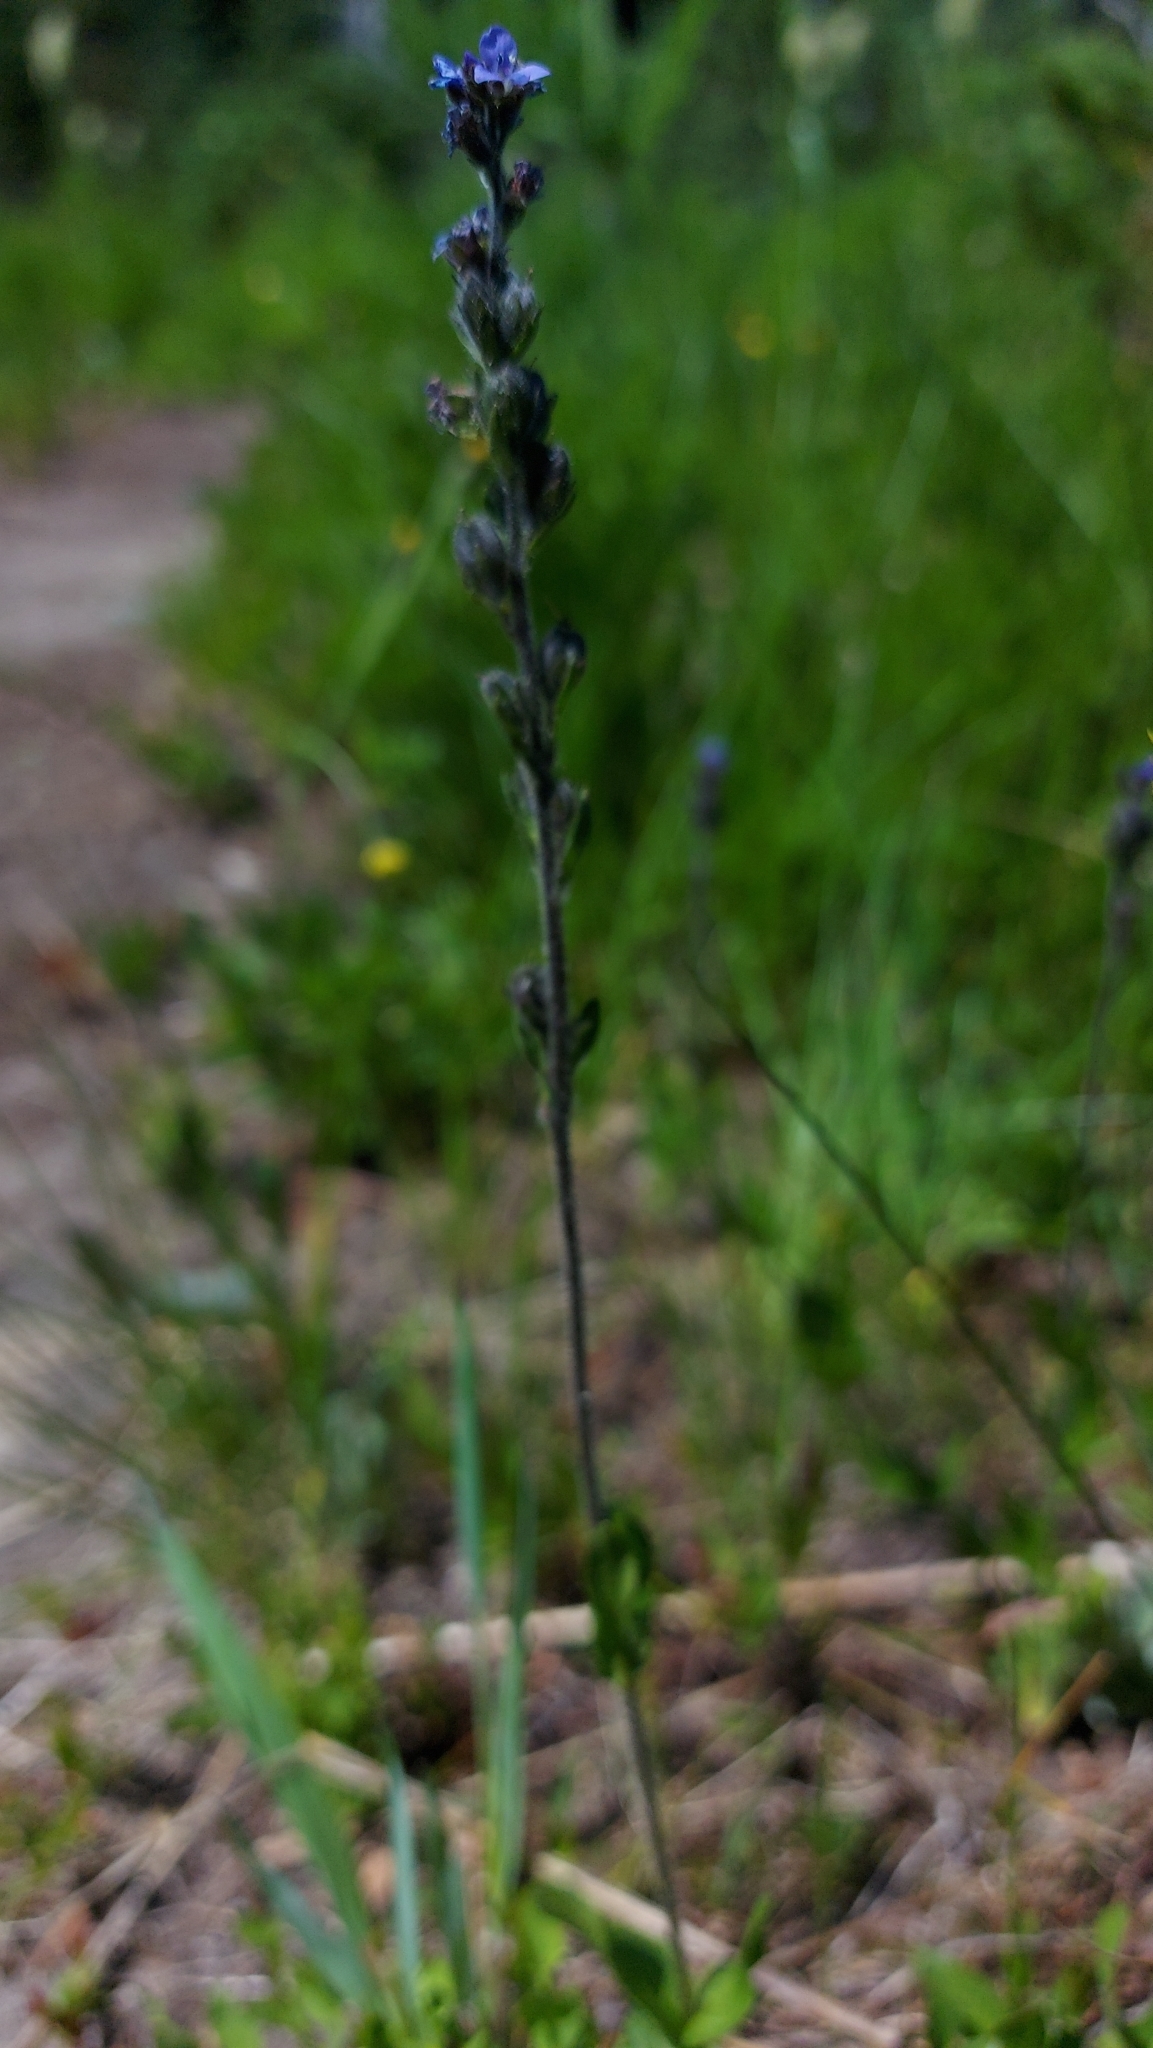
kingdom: Plantae
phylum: Tracheophyta
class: Magnoliopsida
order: Lamiales
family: Plantaginaceae
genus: Veronica
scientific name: Veronica wormskjoldii
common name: American alpine speedwell
